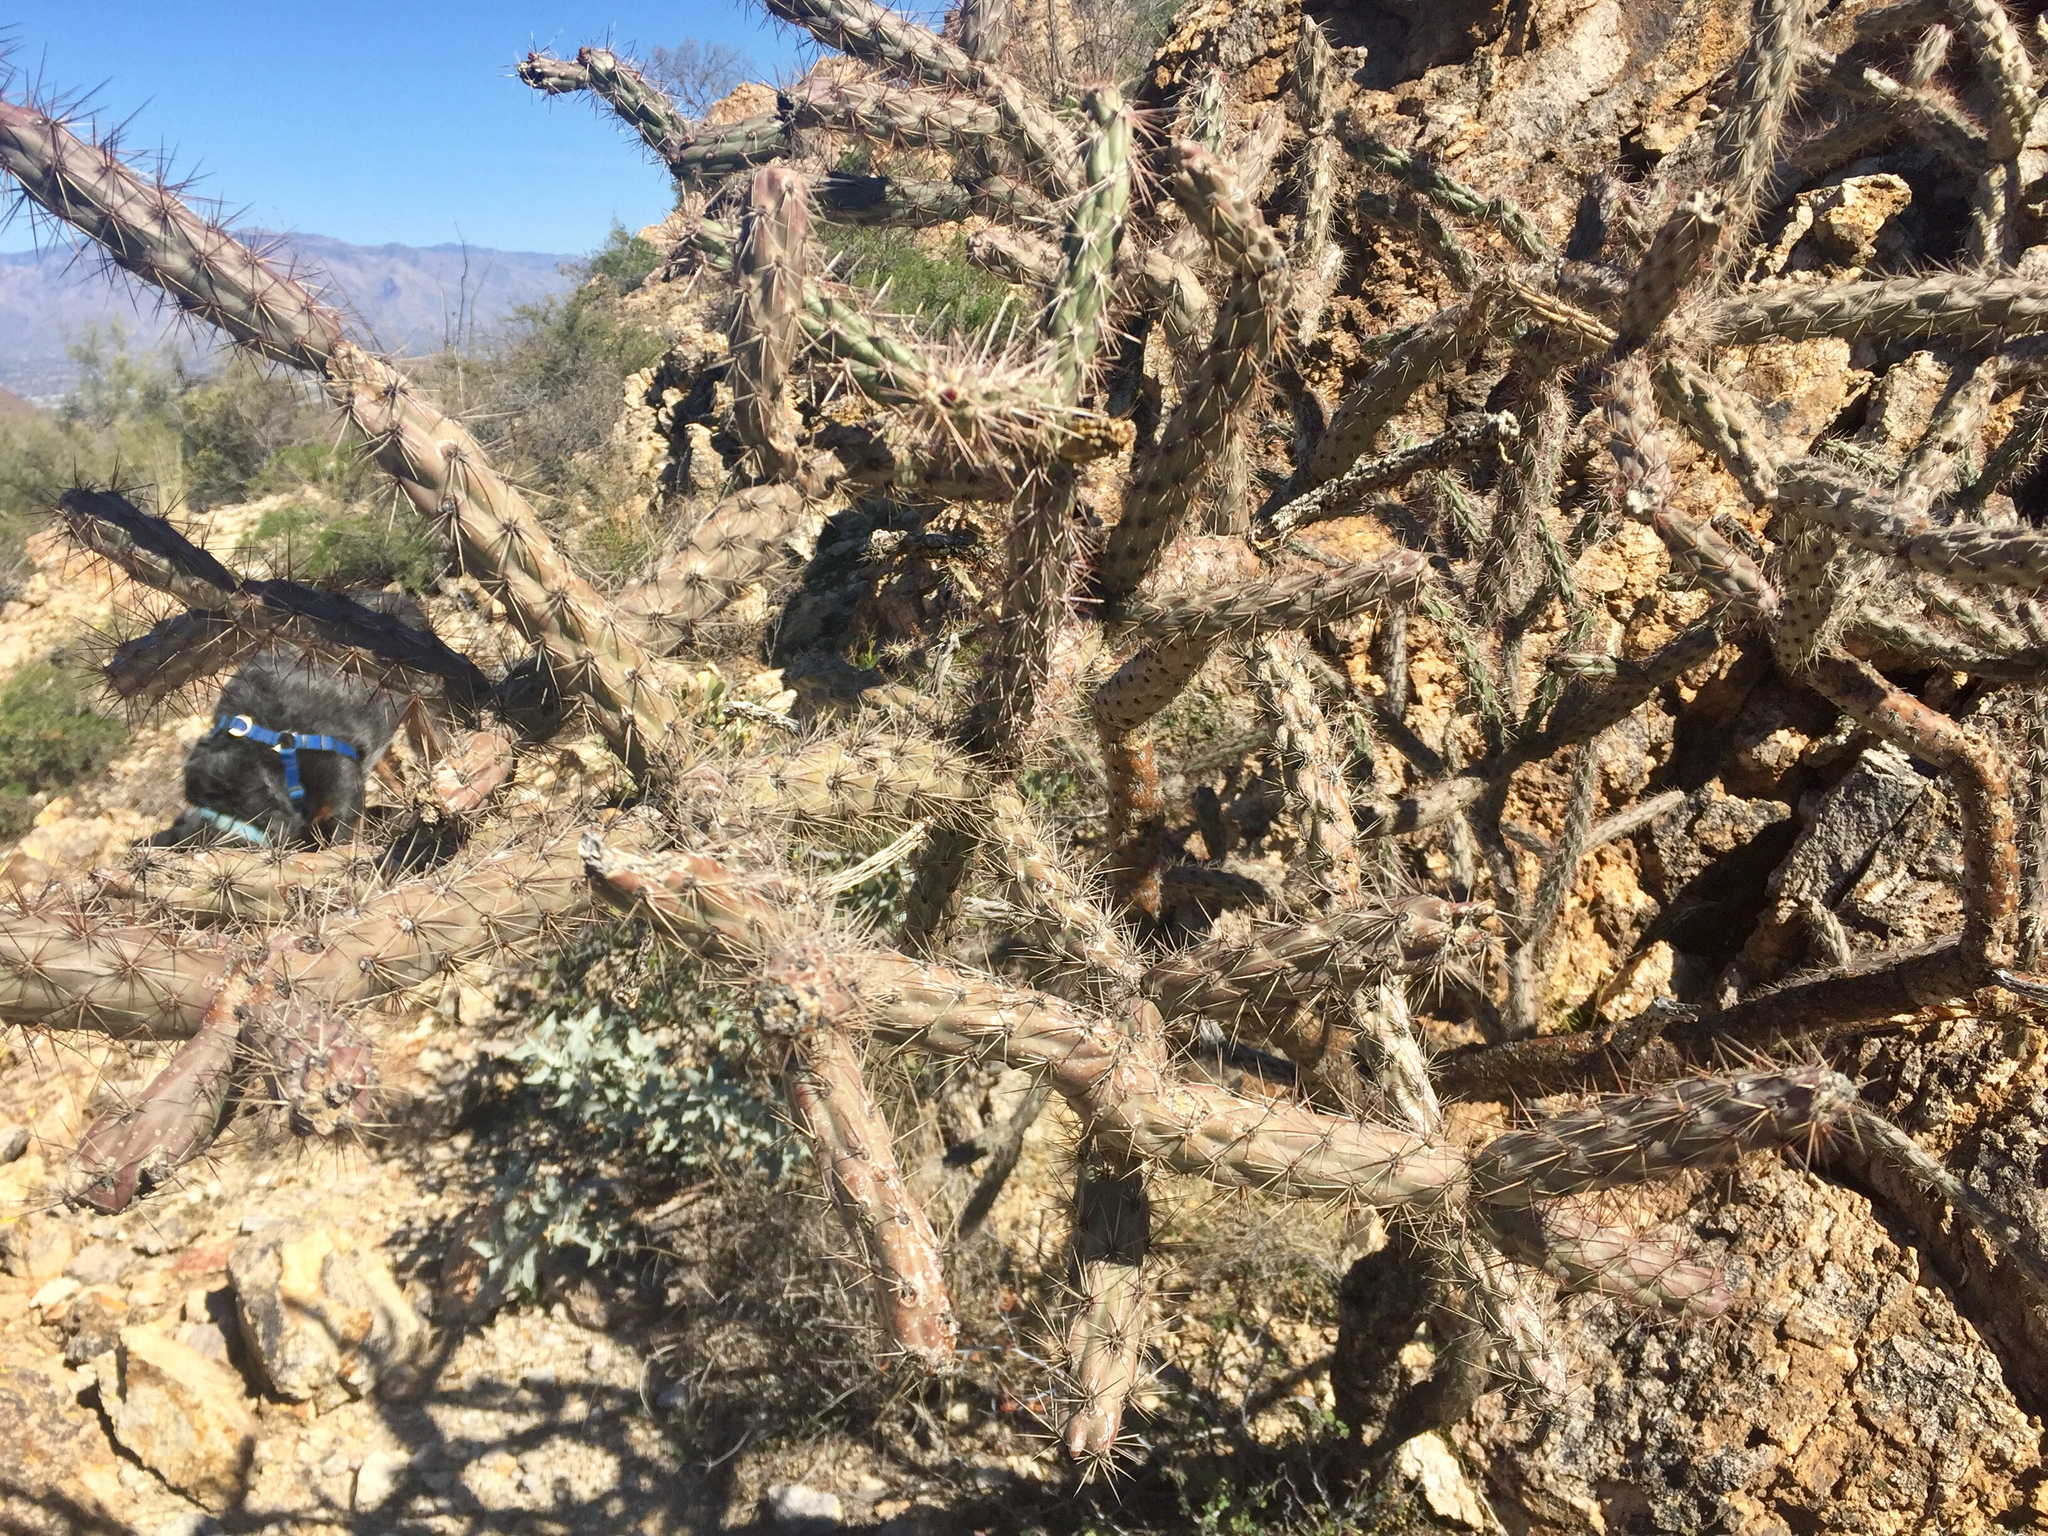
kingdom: Plantae
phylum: Tracheophyta
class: Magnoliopsida
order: Caryophyllales
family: Cactaceae
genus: Cylindropuntia
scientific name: Cylindropuntia acanthocarpa
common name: Buckhorn cholla
